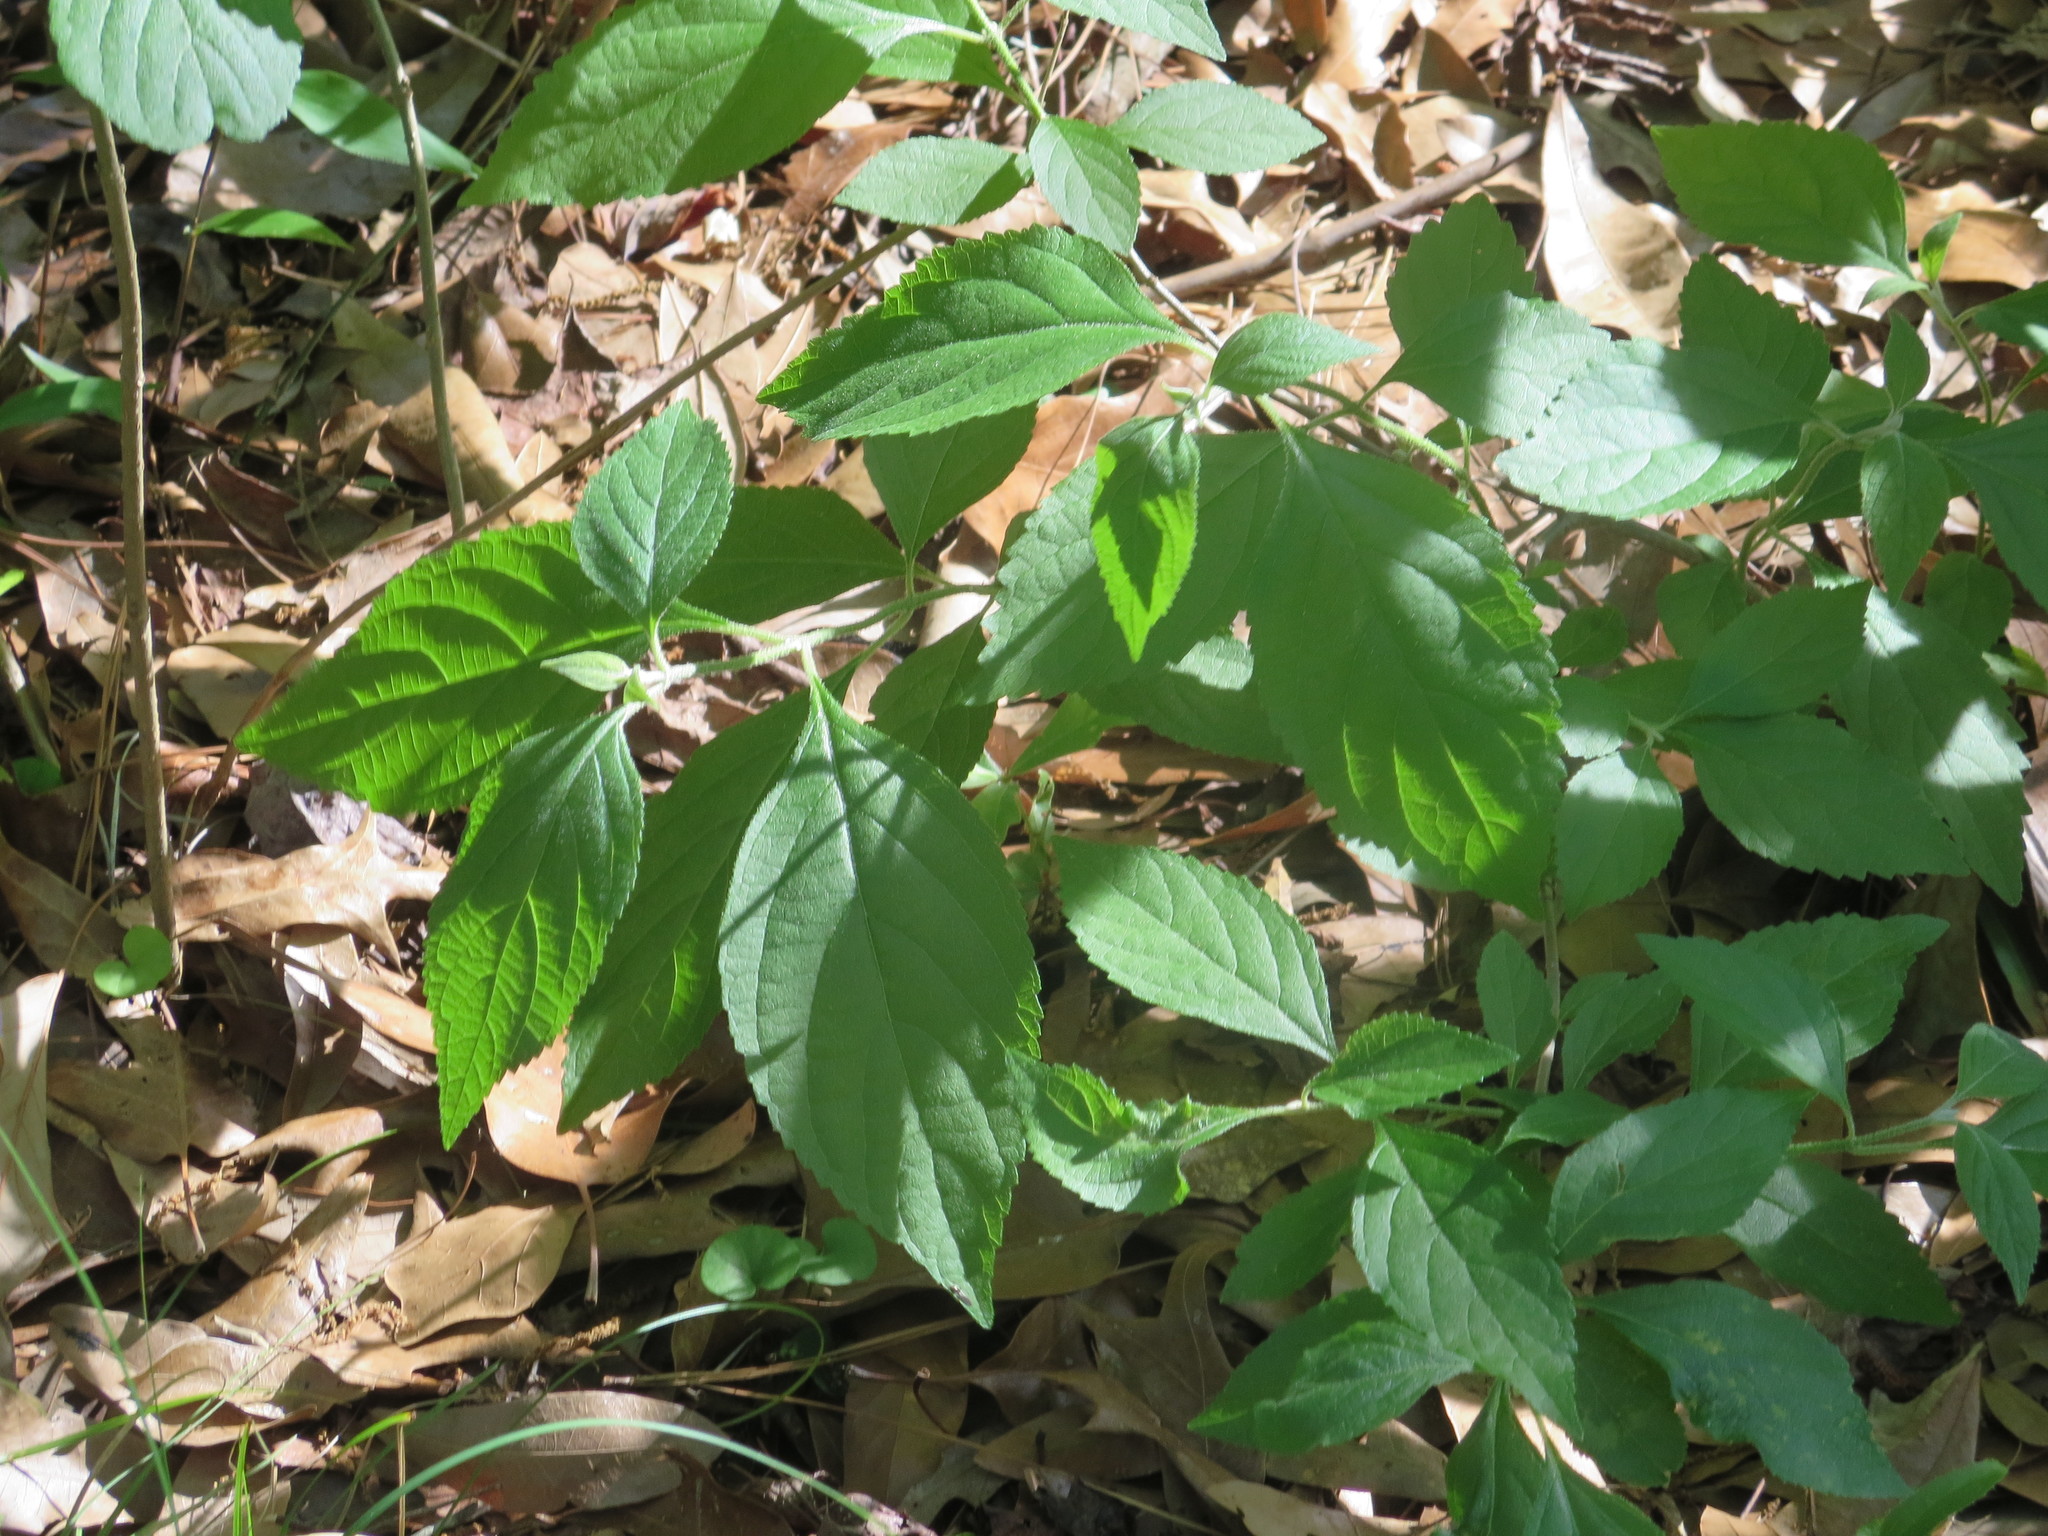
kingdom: Plantae
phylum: Tracheophyta
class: Magnoliopsida
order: Lamiales
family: Lamiaceae
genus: Callicarpa
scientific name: Callicarpa americana
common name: American beautyberry
